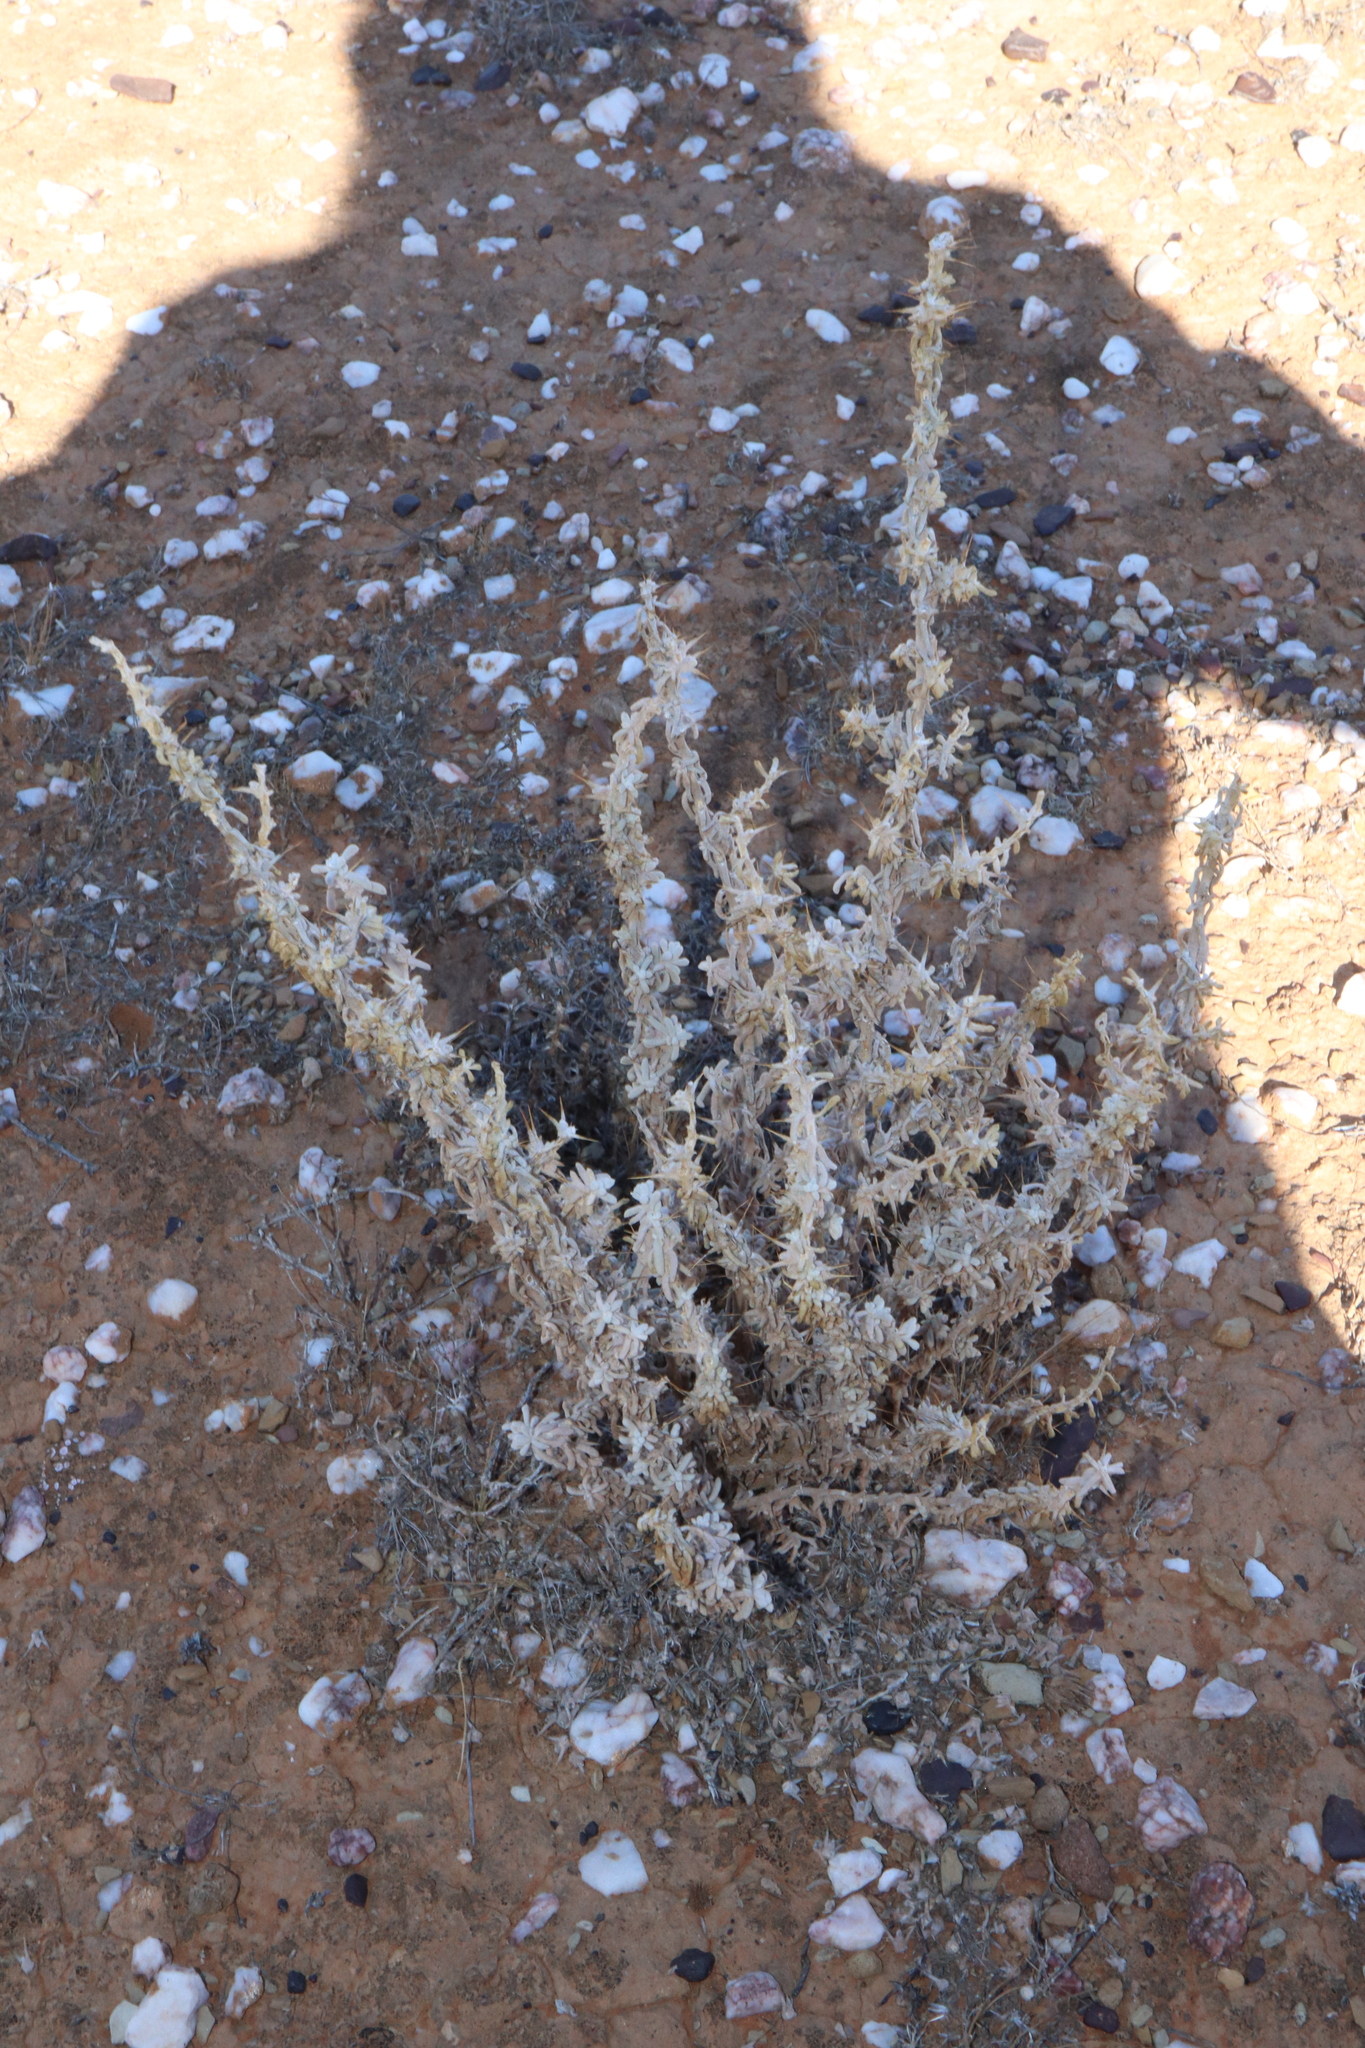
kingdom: Plantae
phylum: Tracheophyta
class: Magnoliopsida
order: Caryophyllales
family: Amaranthaceae
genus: Sclerolaena
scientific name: Sclerolaena limbata
